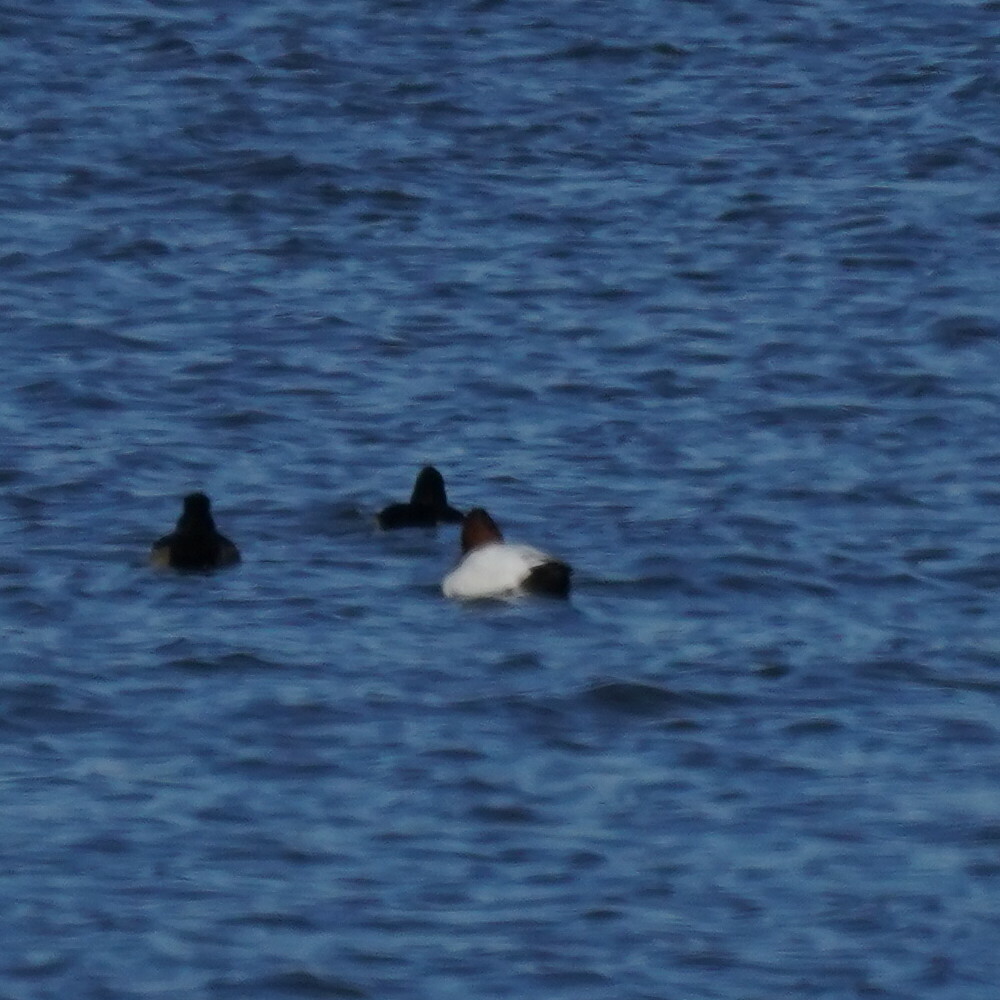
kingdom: Animalia
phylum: Chordata
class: Aves
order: Anseriformes
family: Anatidae
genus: Aythya
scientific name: Aythya valisineria
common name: Canvasback
